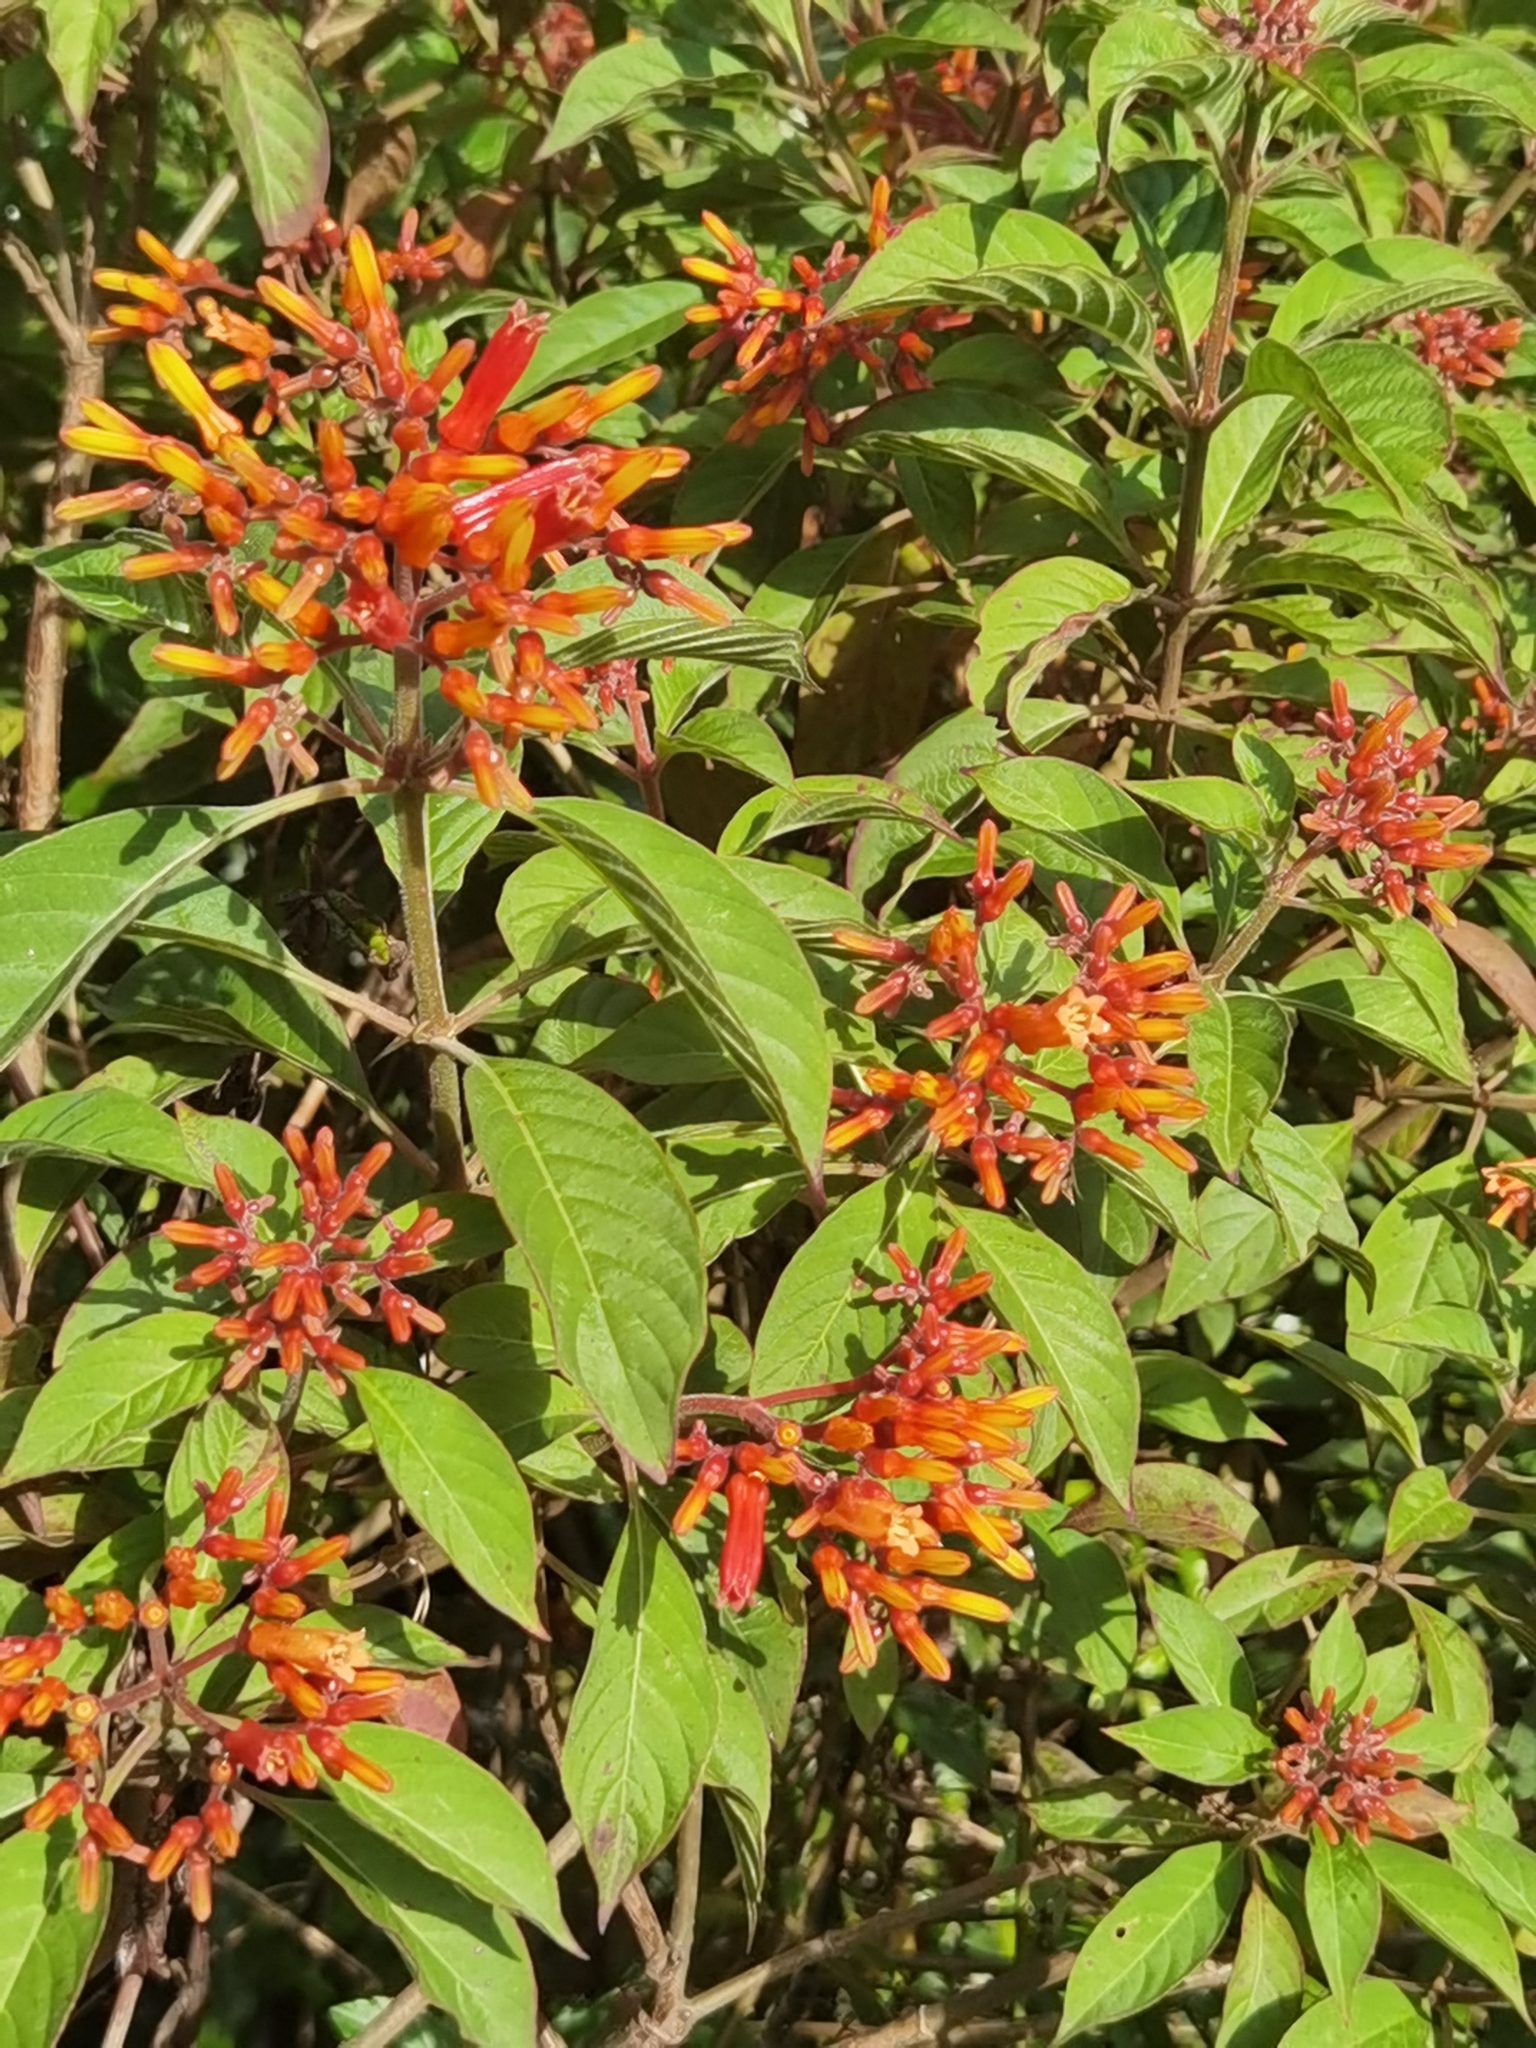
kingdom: Plantae
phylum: Tracheophyta
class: Magnoliopsida
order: Gentianales
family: Rubiaceae
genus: Hamelia
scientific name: Hamelia patens
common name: Redhead
